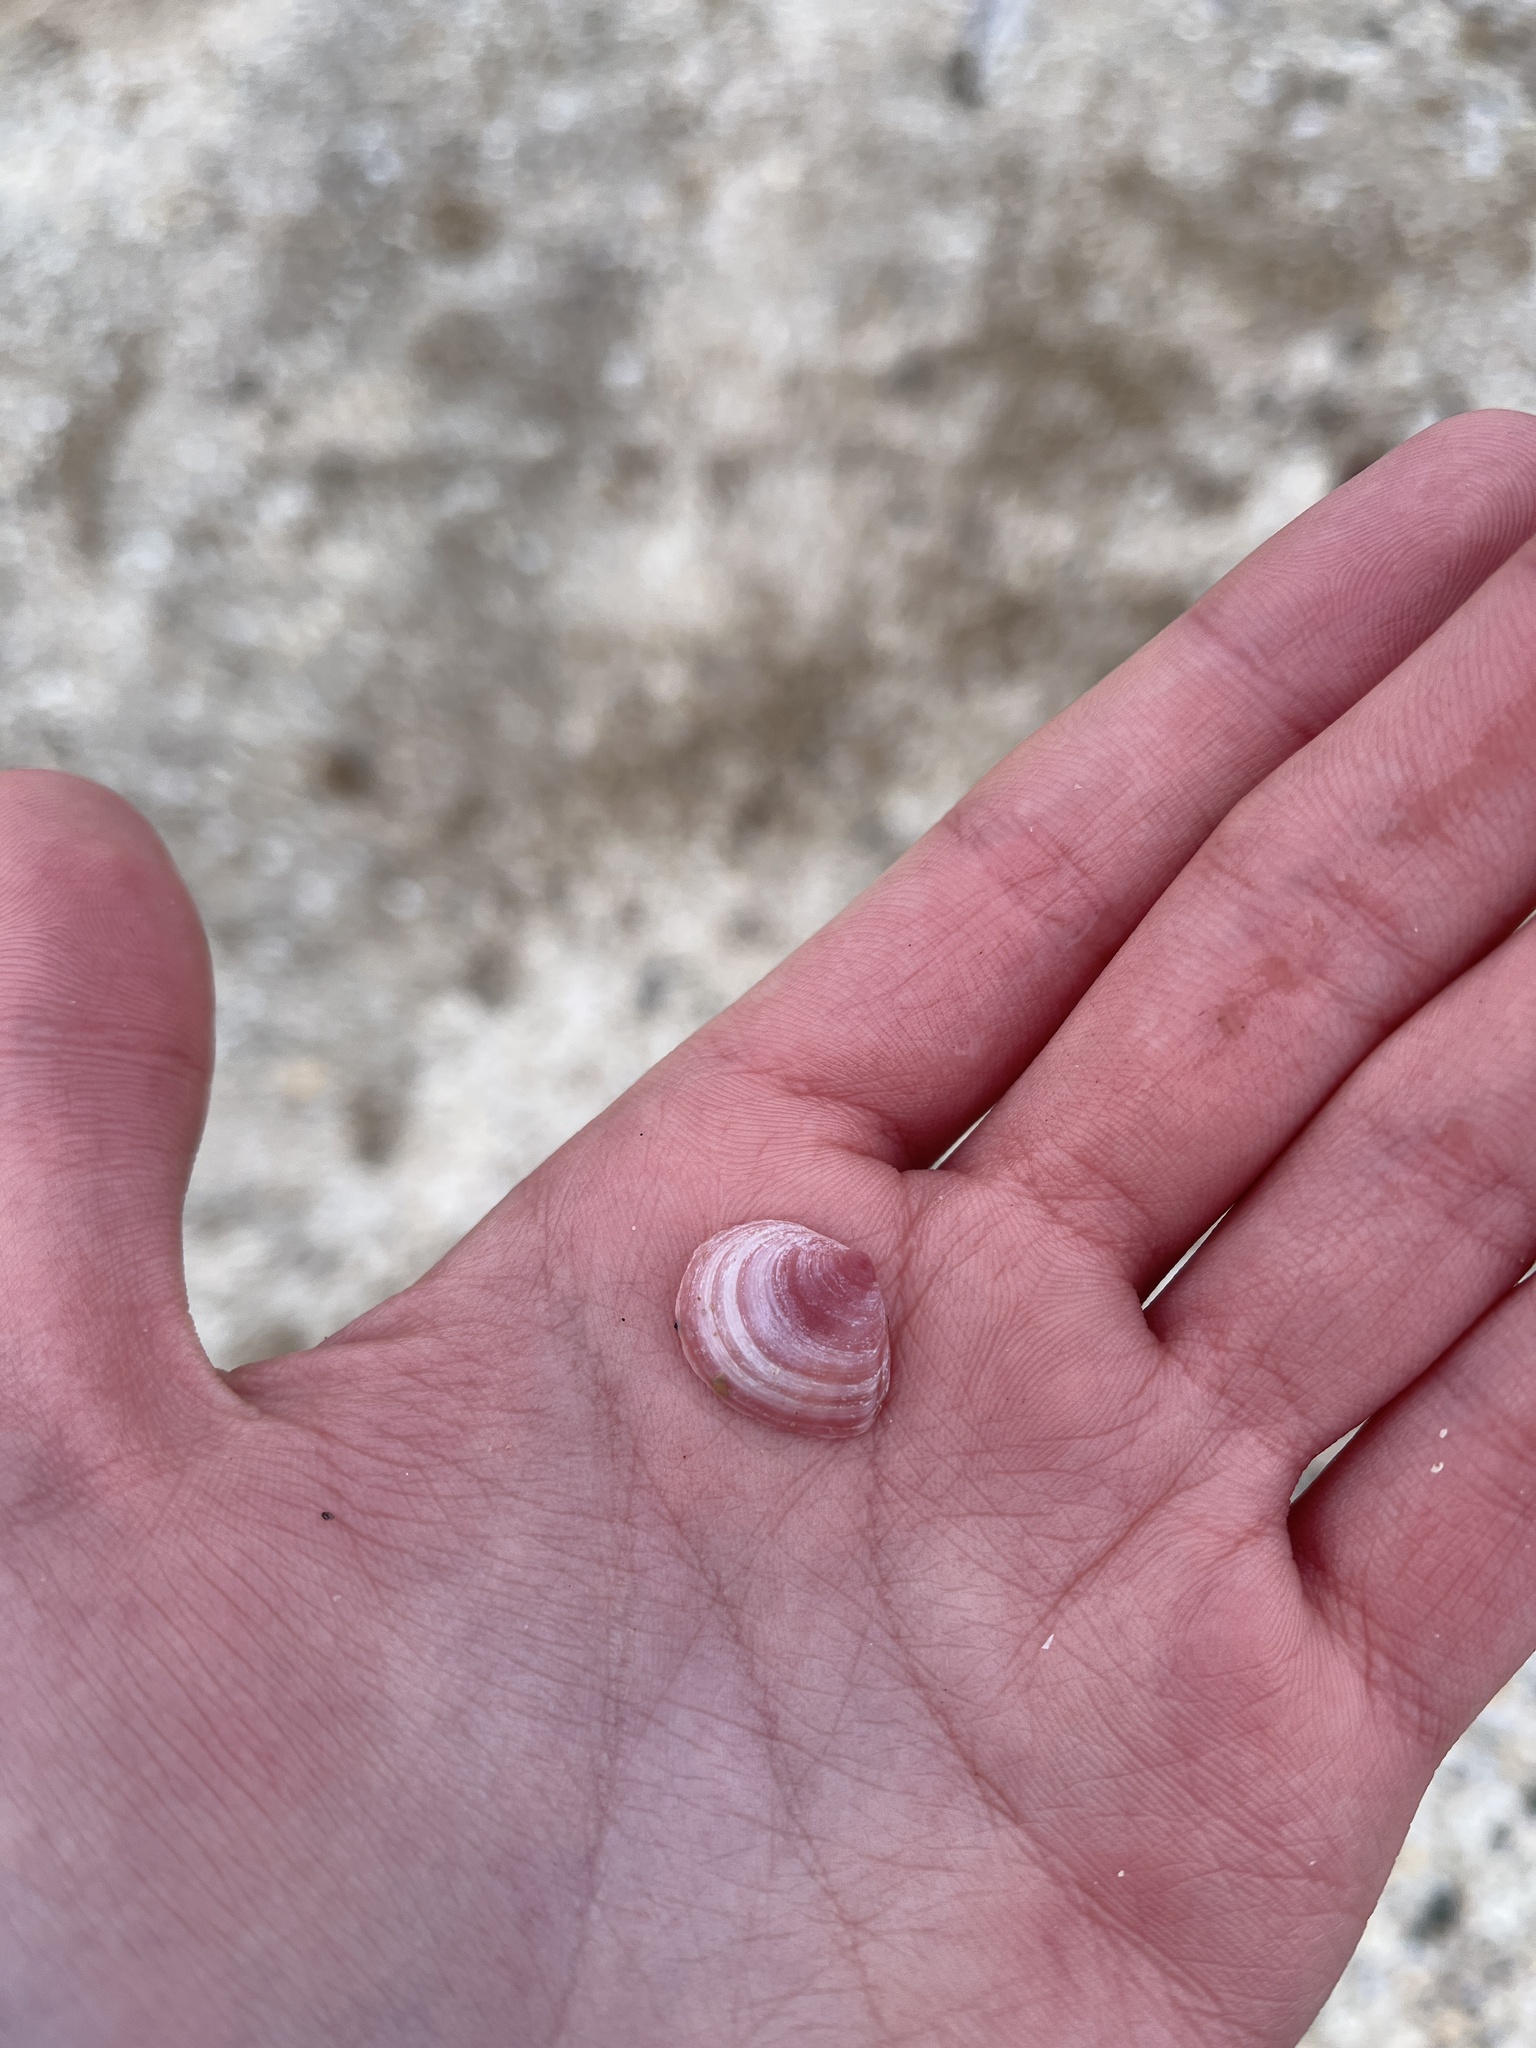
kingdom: Animalia
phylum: Mollusca
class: Bivalvia
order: Cardiida
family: Tellinidae
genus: Macoma
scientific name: Macoma balthica
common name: Baltic tellin
